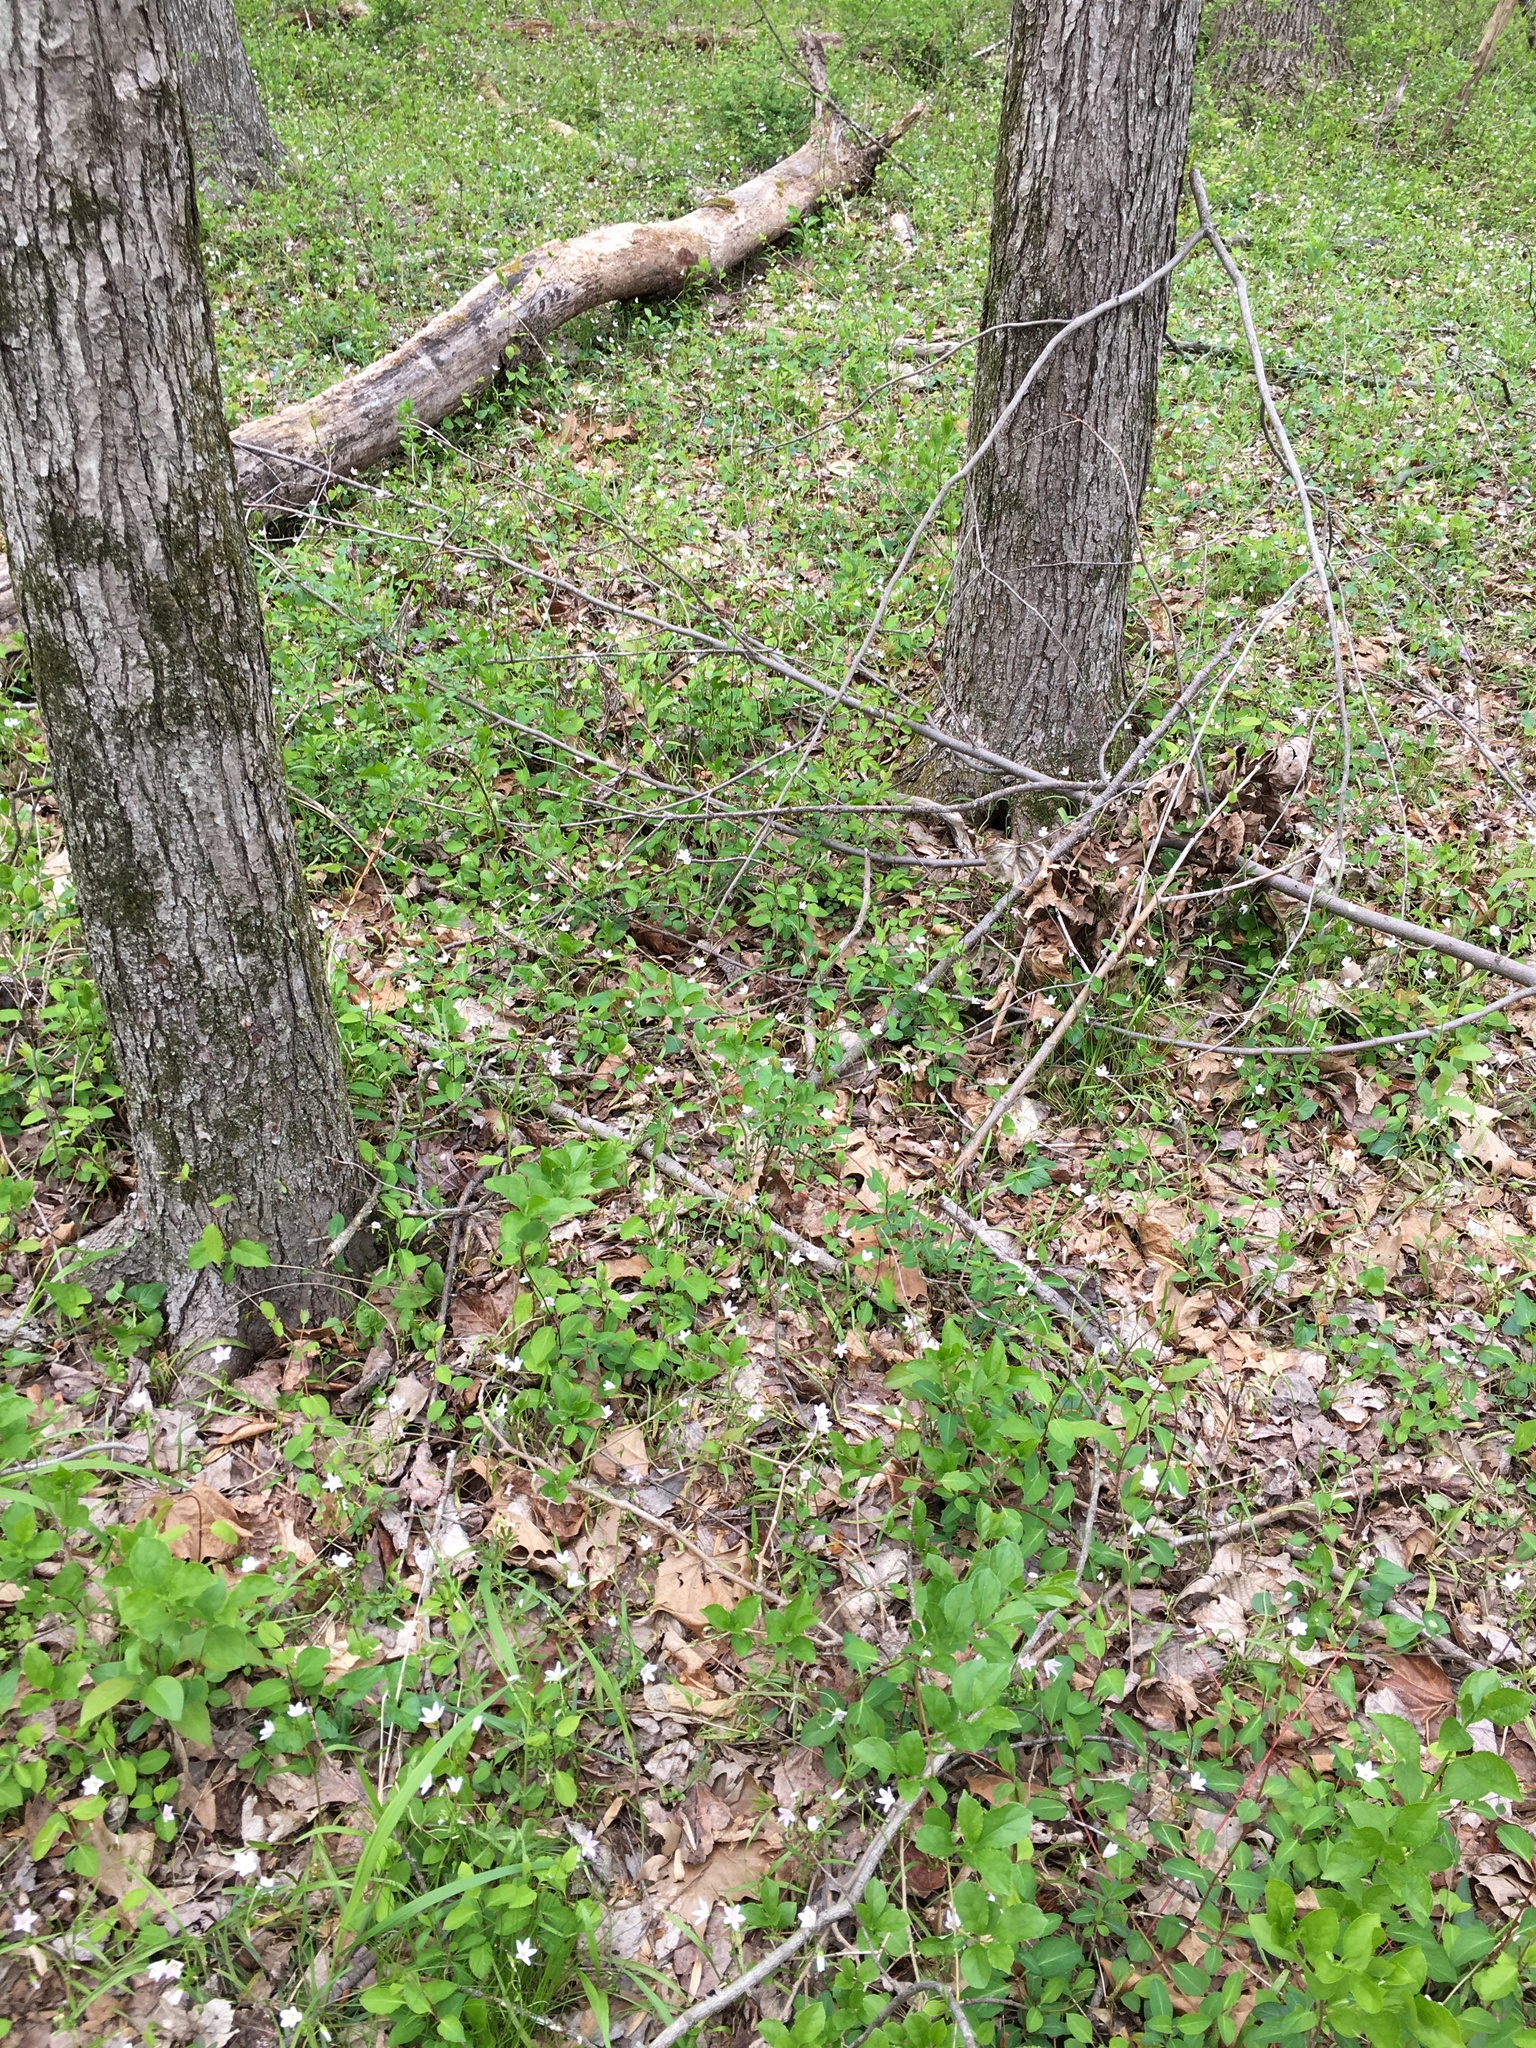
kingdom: Plantae
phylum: Tracheophyta
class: Magnoliopsida
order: Caryophyllales
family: Montiaceae
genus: Claytonia
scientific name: Claytonia virginica
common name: Virginia springbeauty
